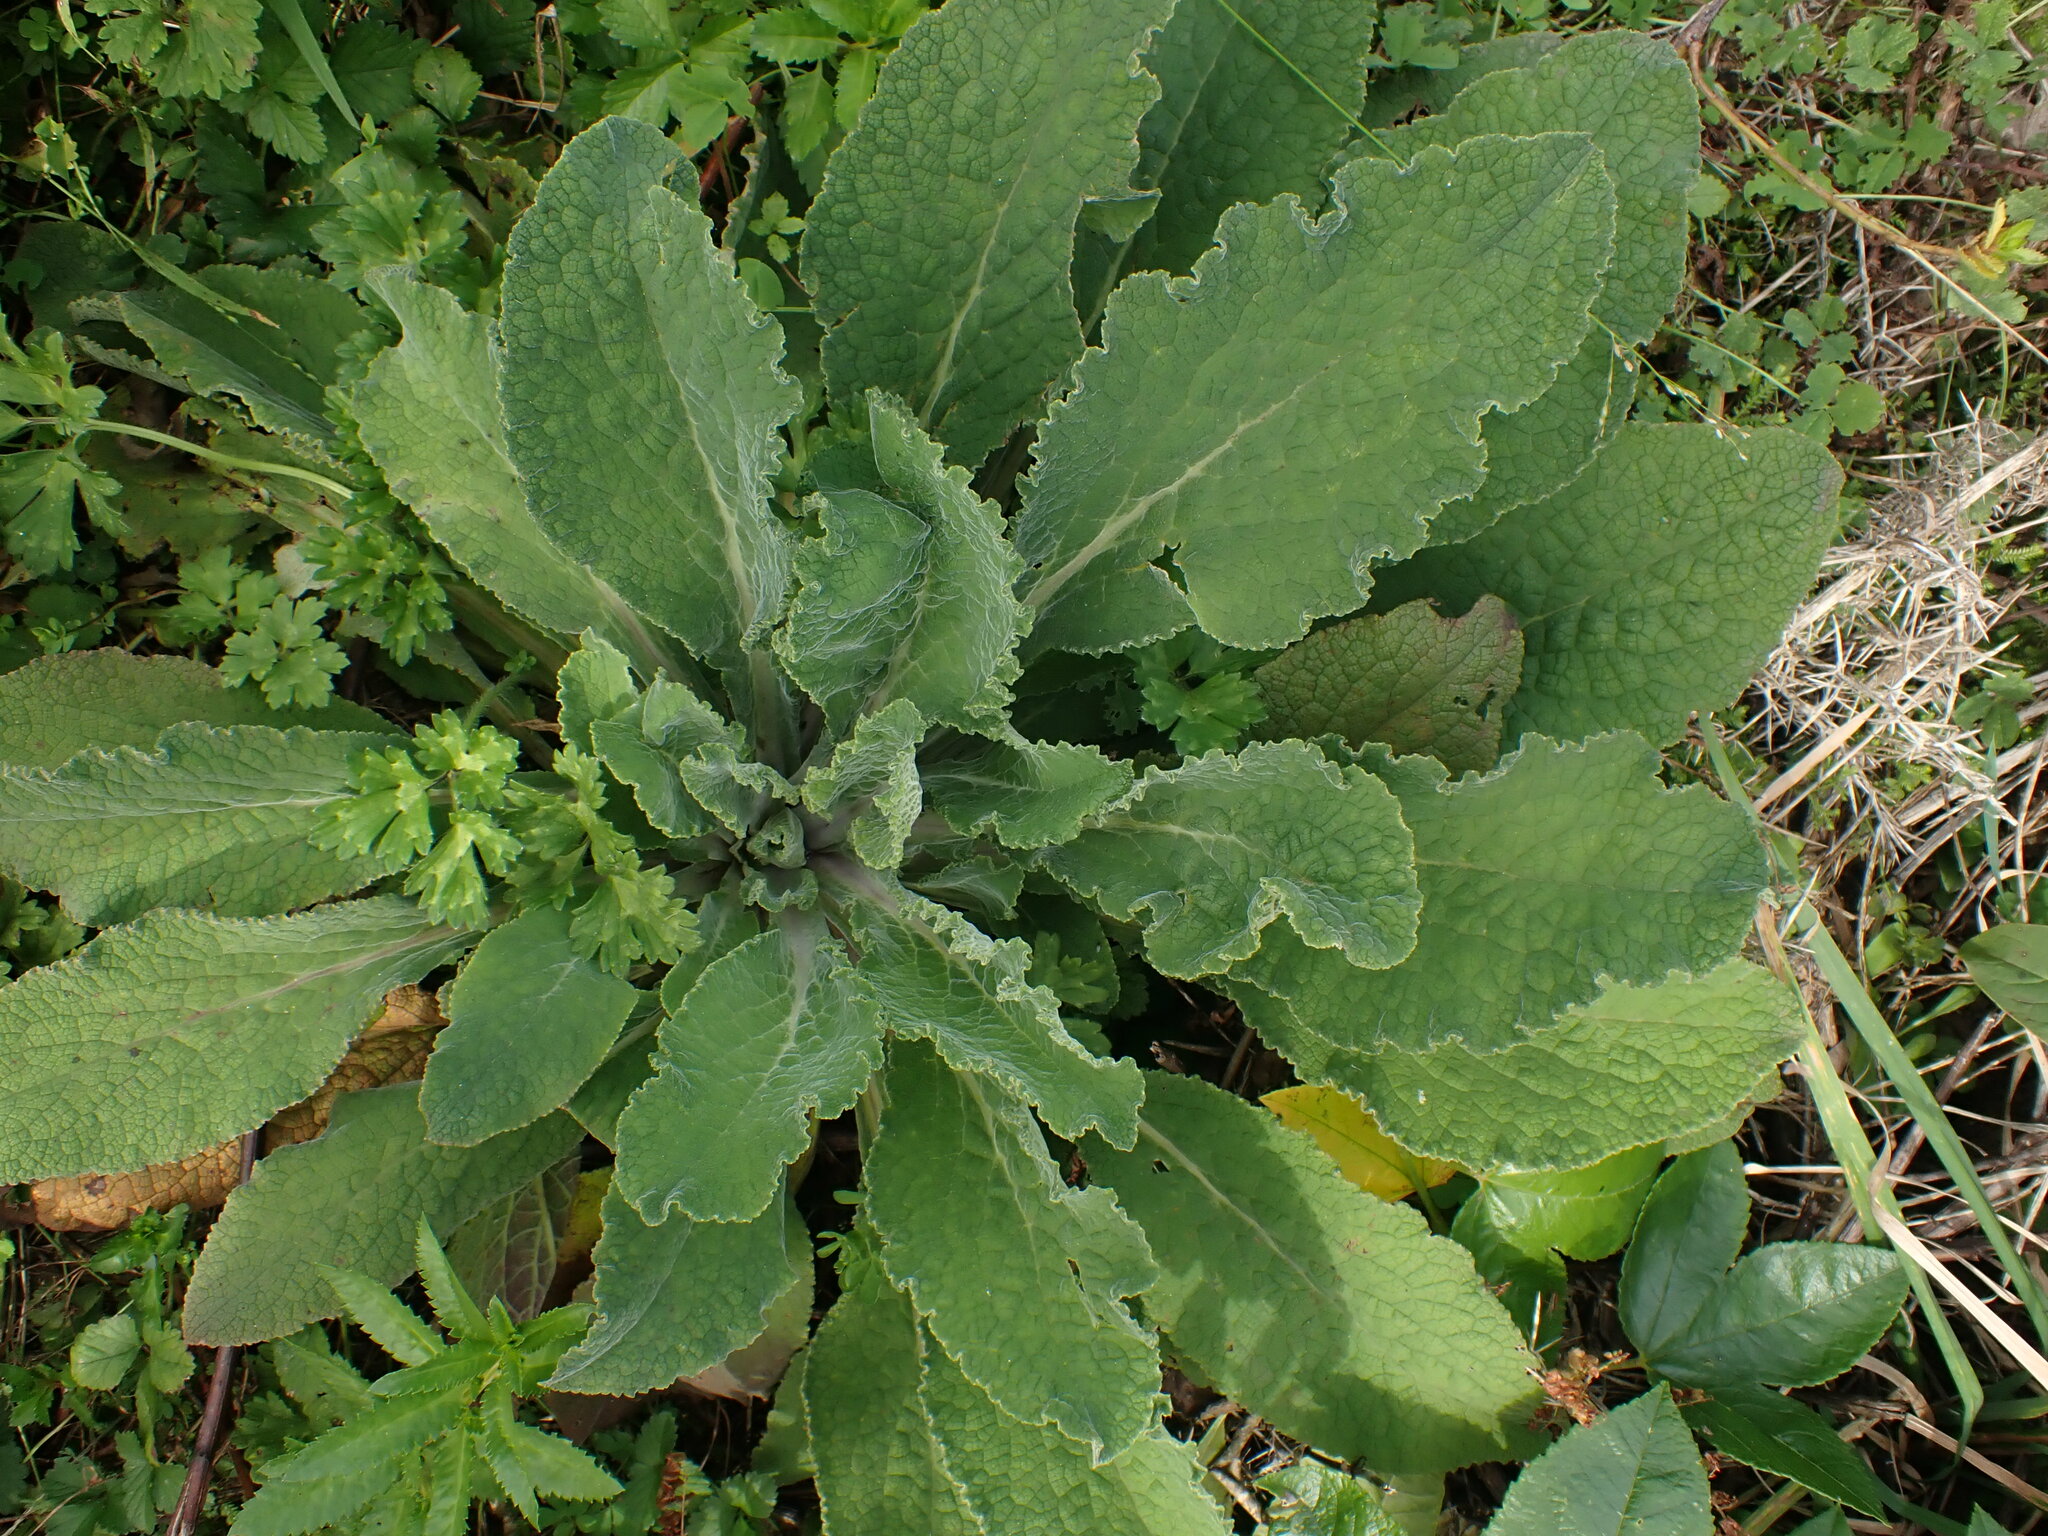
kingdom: Plantae
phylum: Tracheophyta
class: Magnoliopsida
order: Lamiales
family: Plantaginaceae
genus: Digitalis
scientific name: Digitalis purpurea
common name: Foxglove
